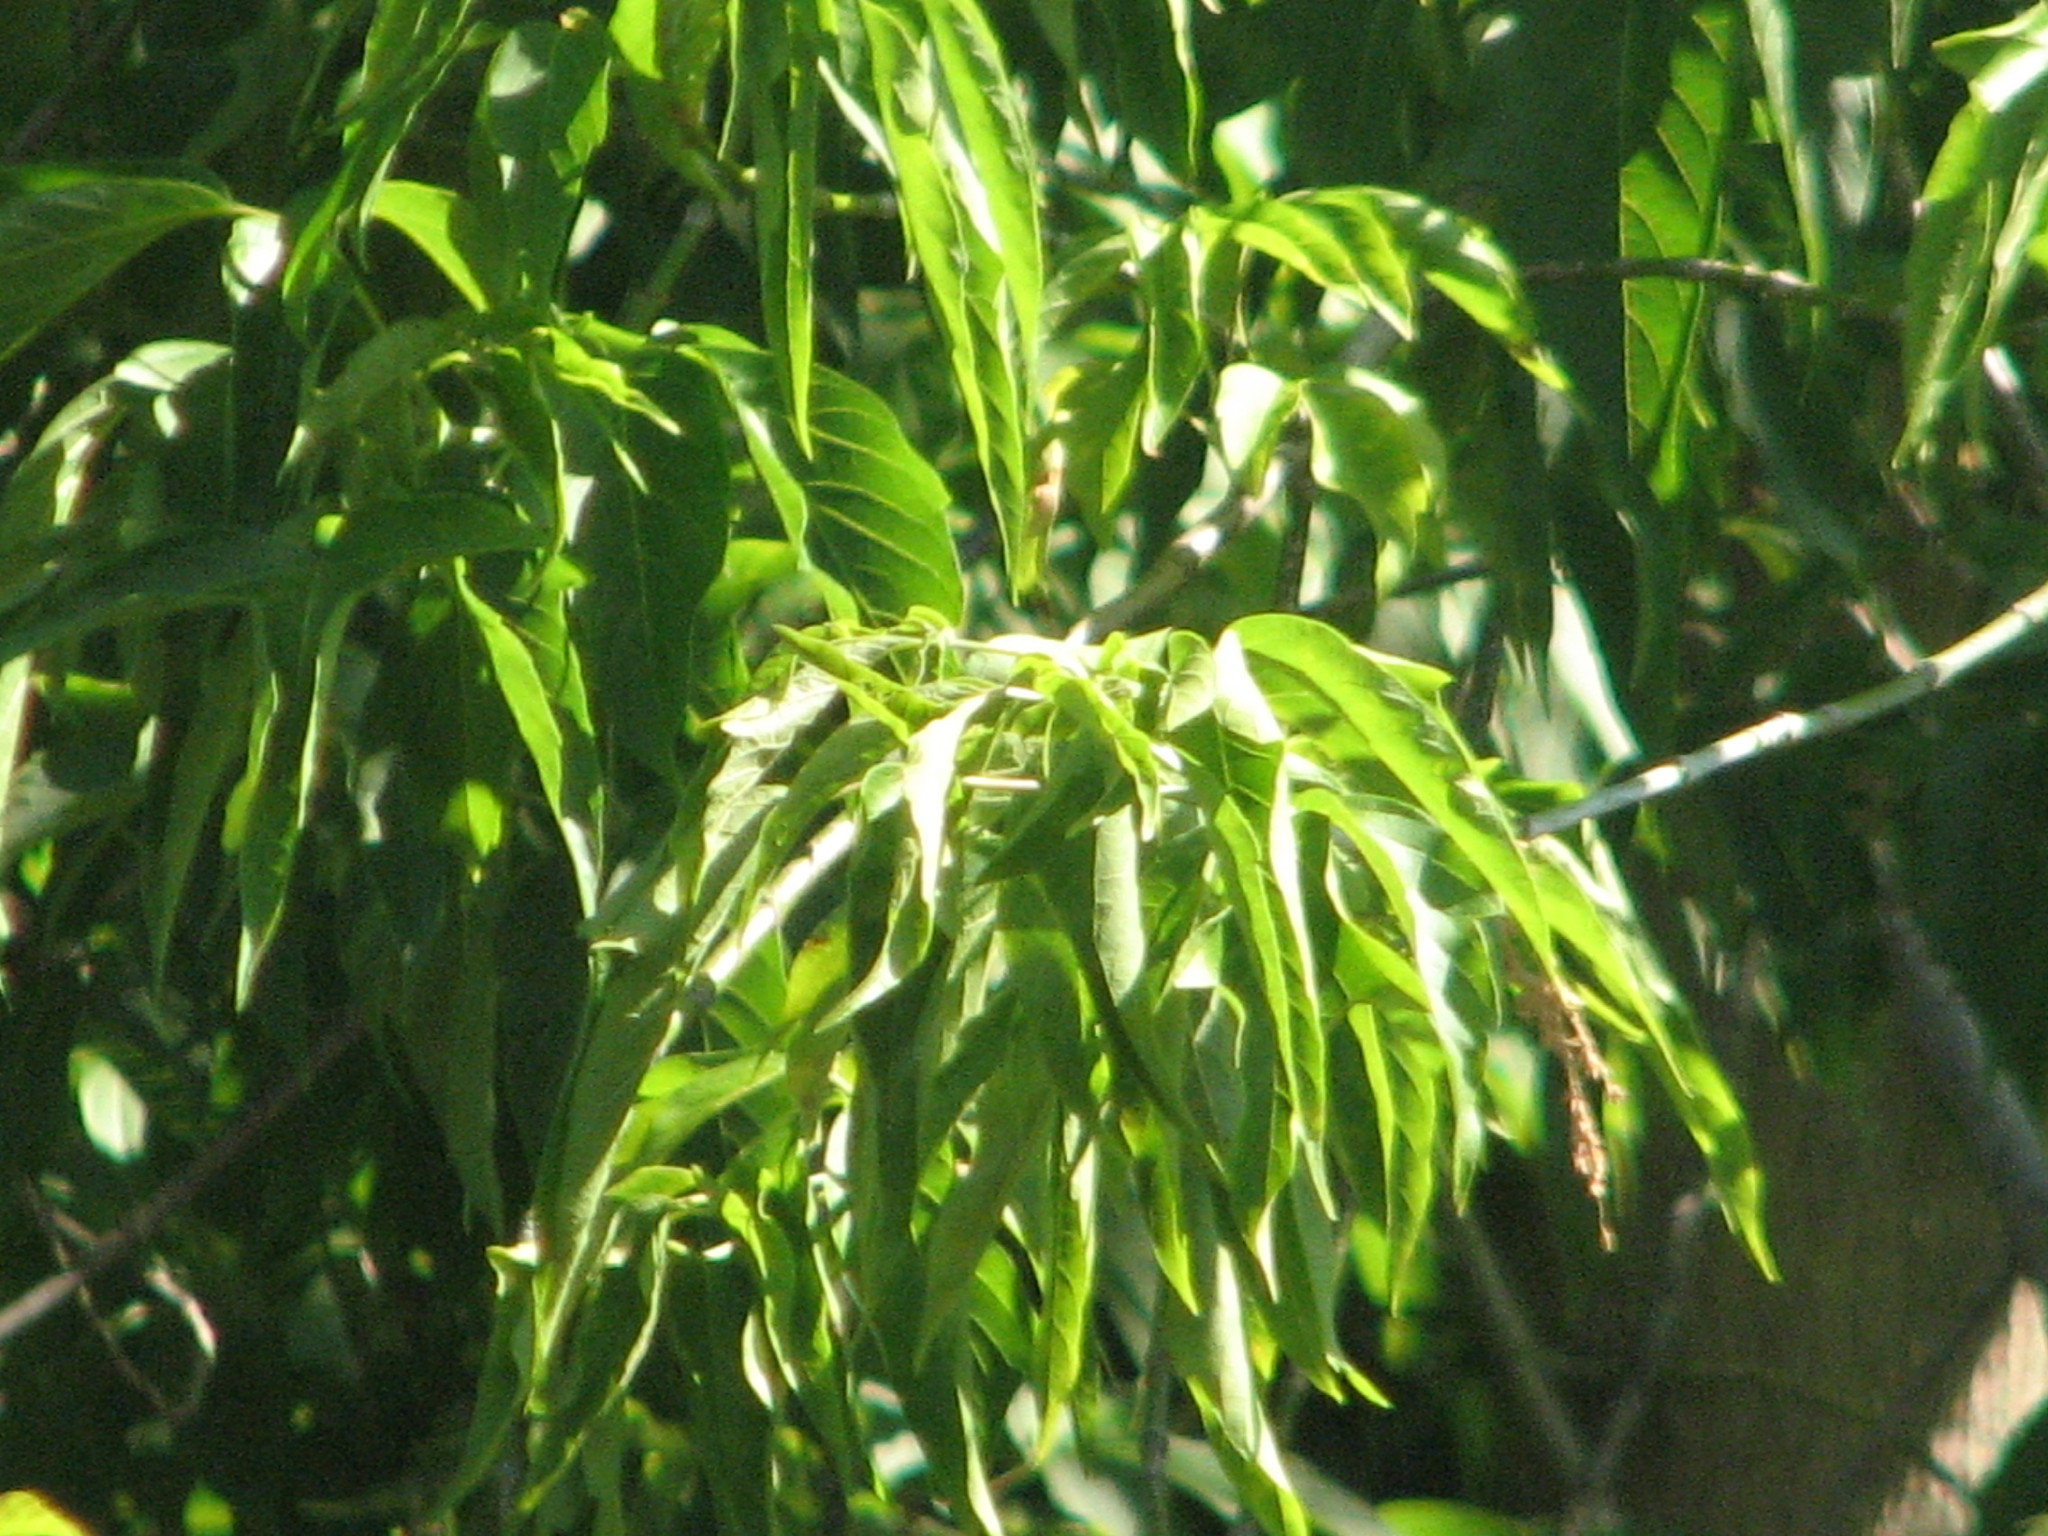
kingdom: Plantae
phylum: Tracheophyta
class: Magnoliopsida
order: Sapindales
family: Sapindaceae
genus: Acer
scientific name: Acer negundo
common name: Ashleaf maple
